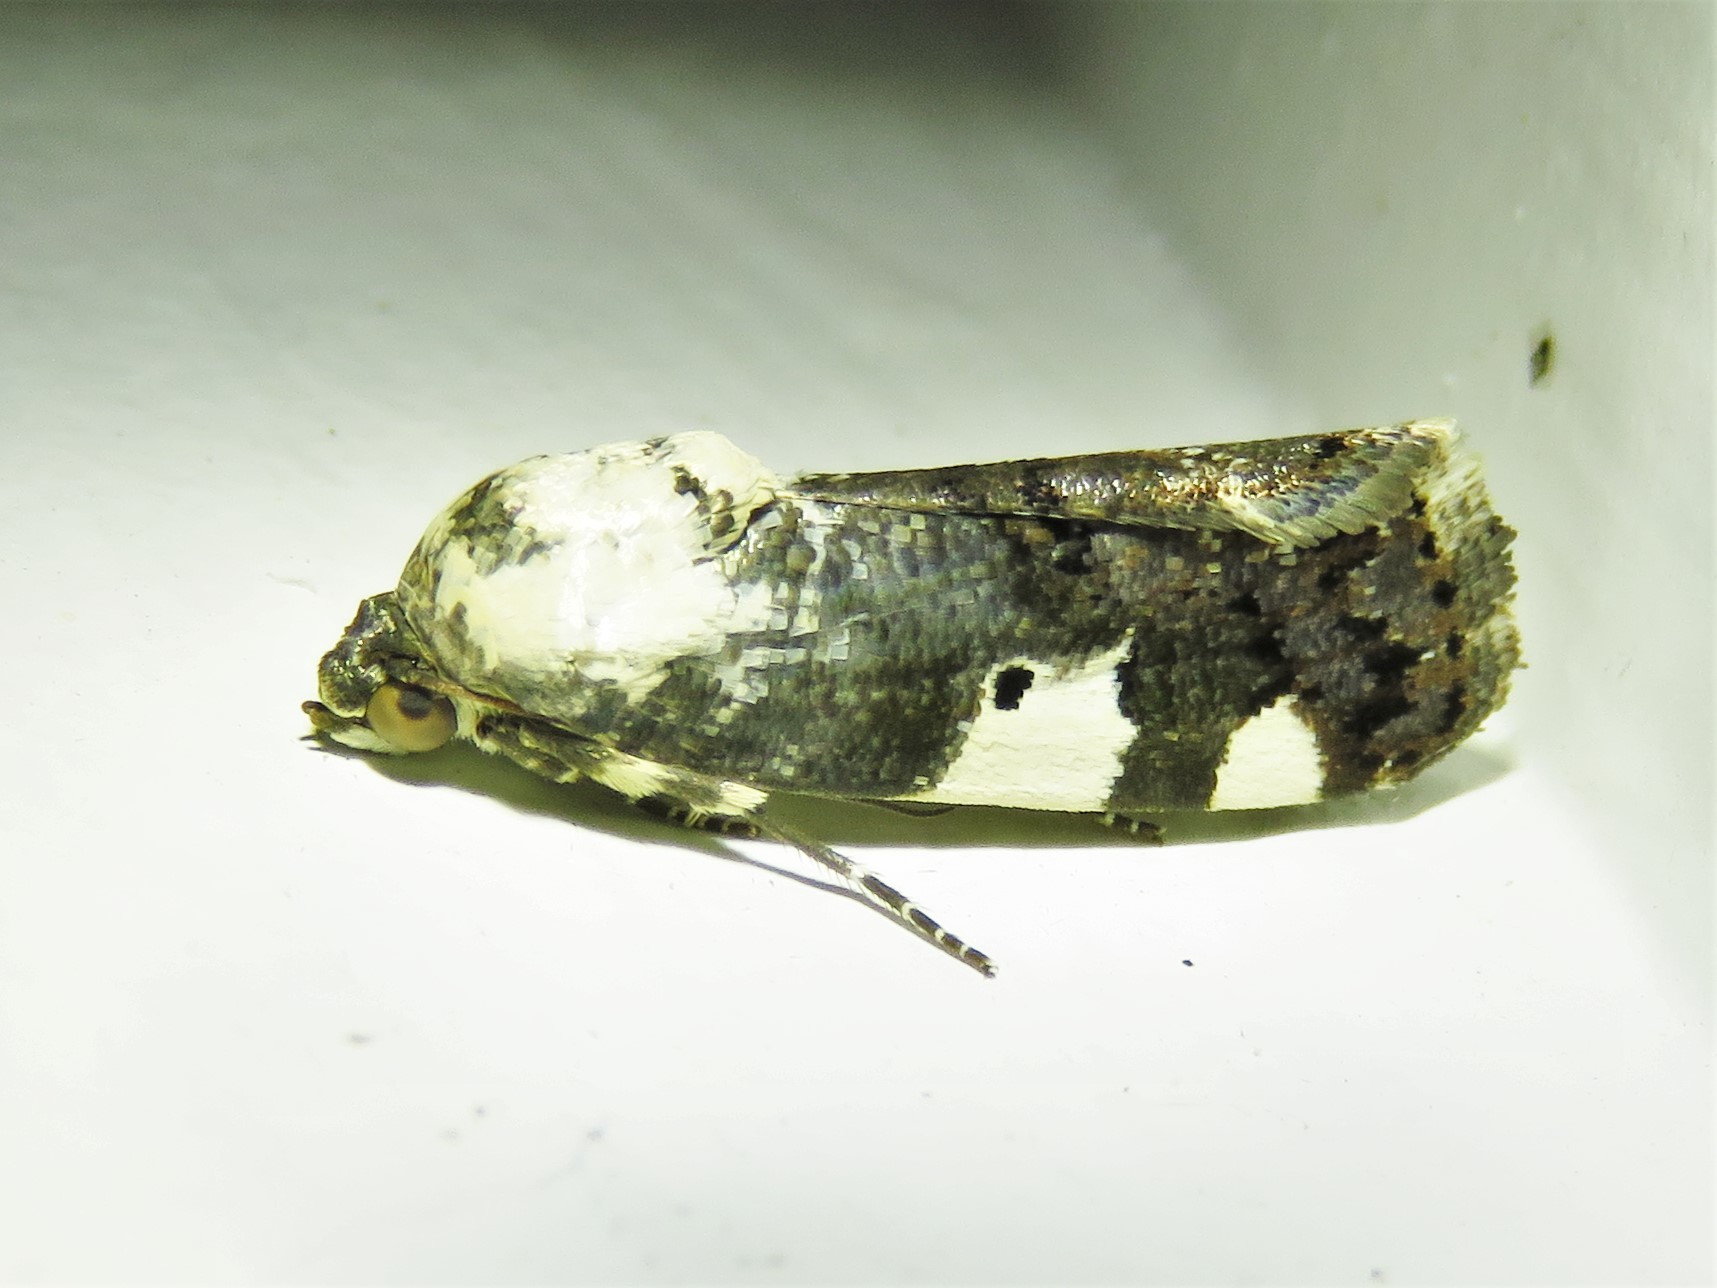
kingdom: Animalia
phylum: Arthropoda
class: Insecta
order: Lepidoptera
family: Noctuidae
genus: Acontia
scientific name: Acontia aprica
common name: Nun
